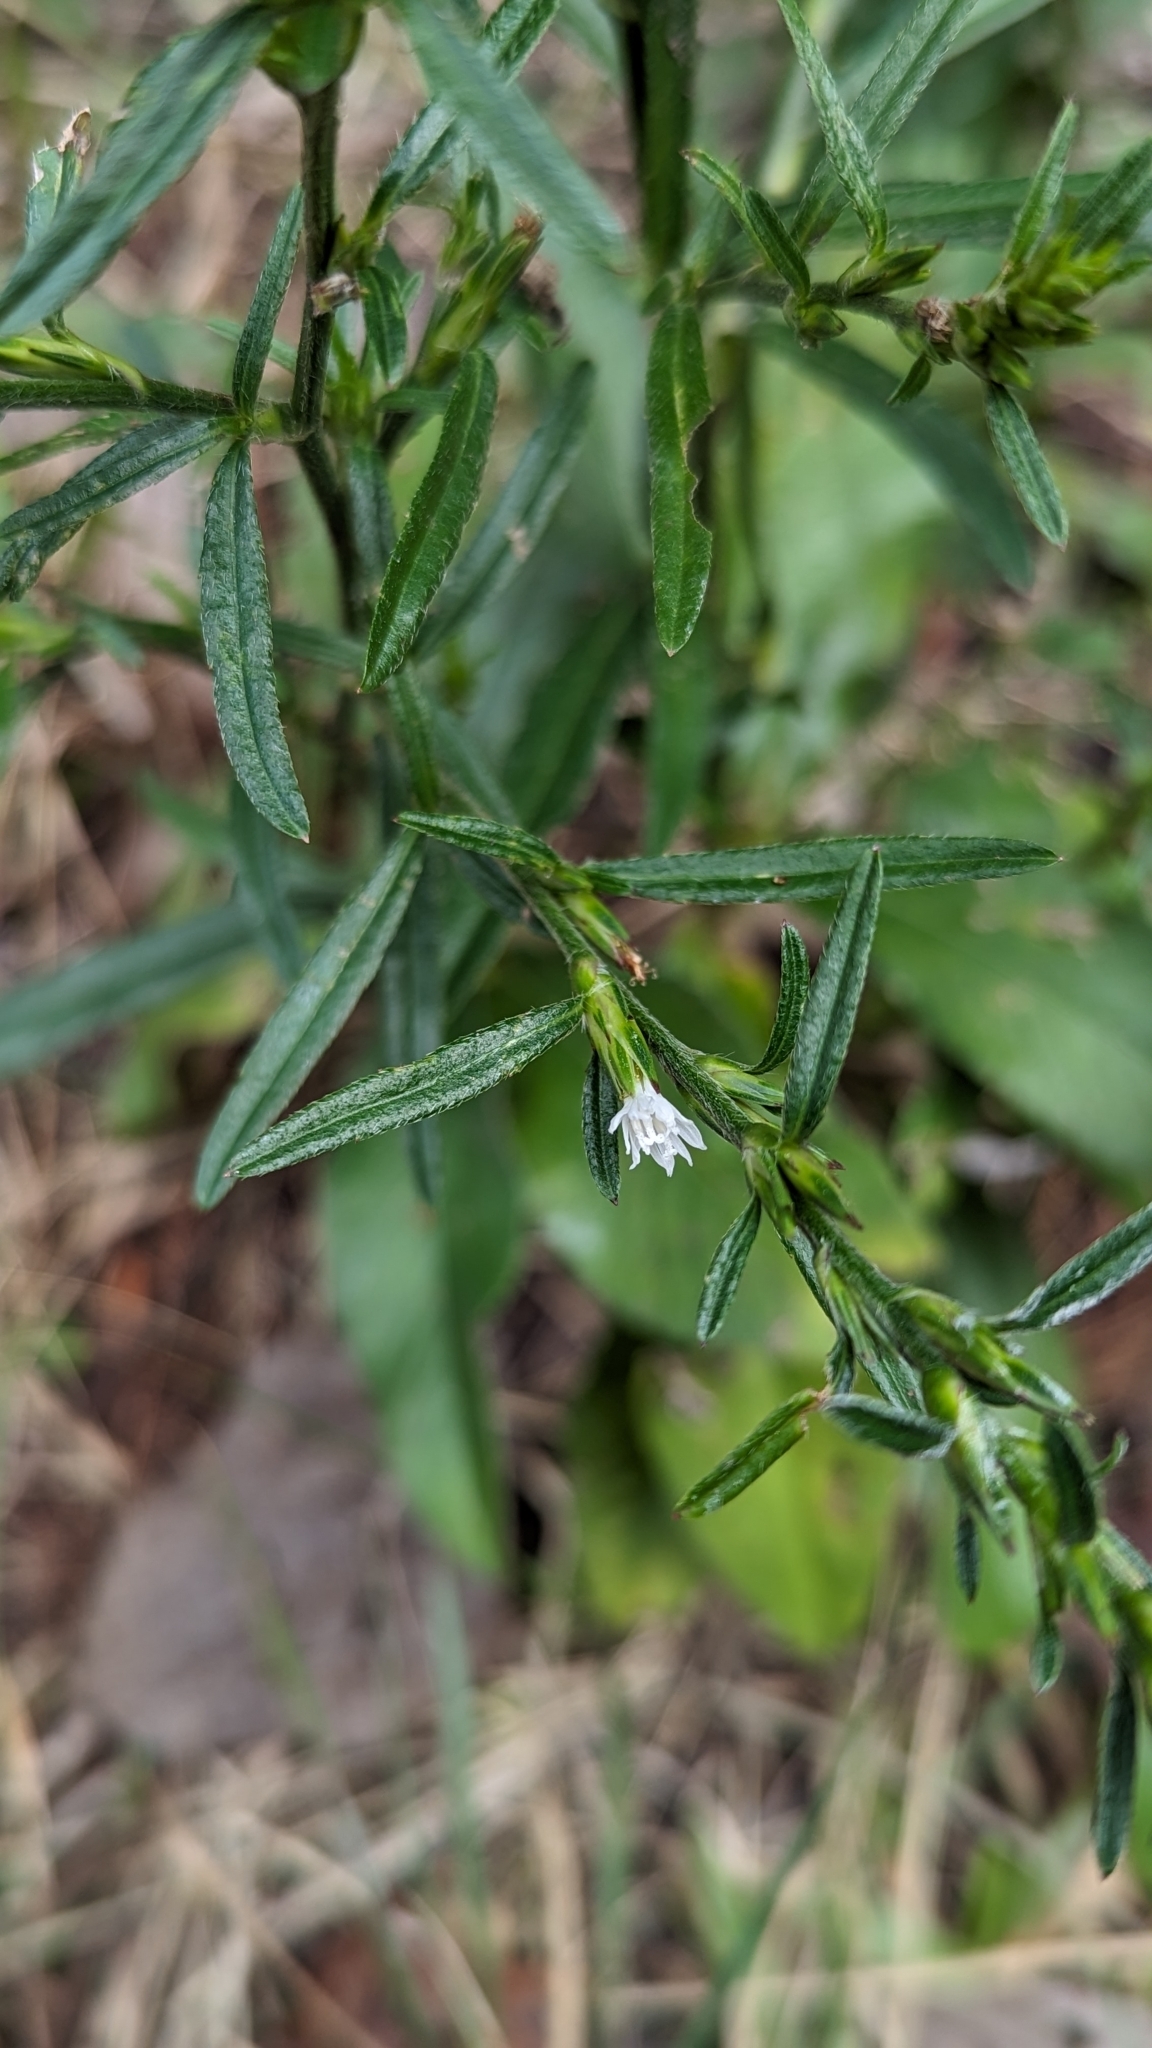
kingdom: Plantae
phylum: Tracheophyta
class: Magnoliopsida
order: Asterales
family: Asteraceae
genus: Pseudelephantopus
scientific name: Pseudelephantopus spicatus
